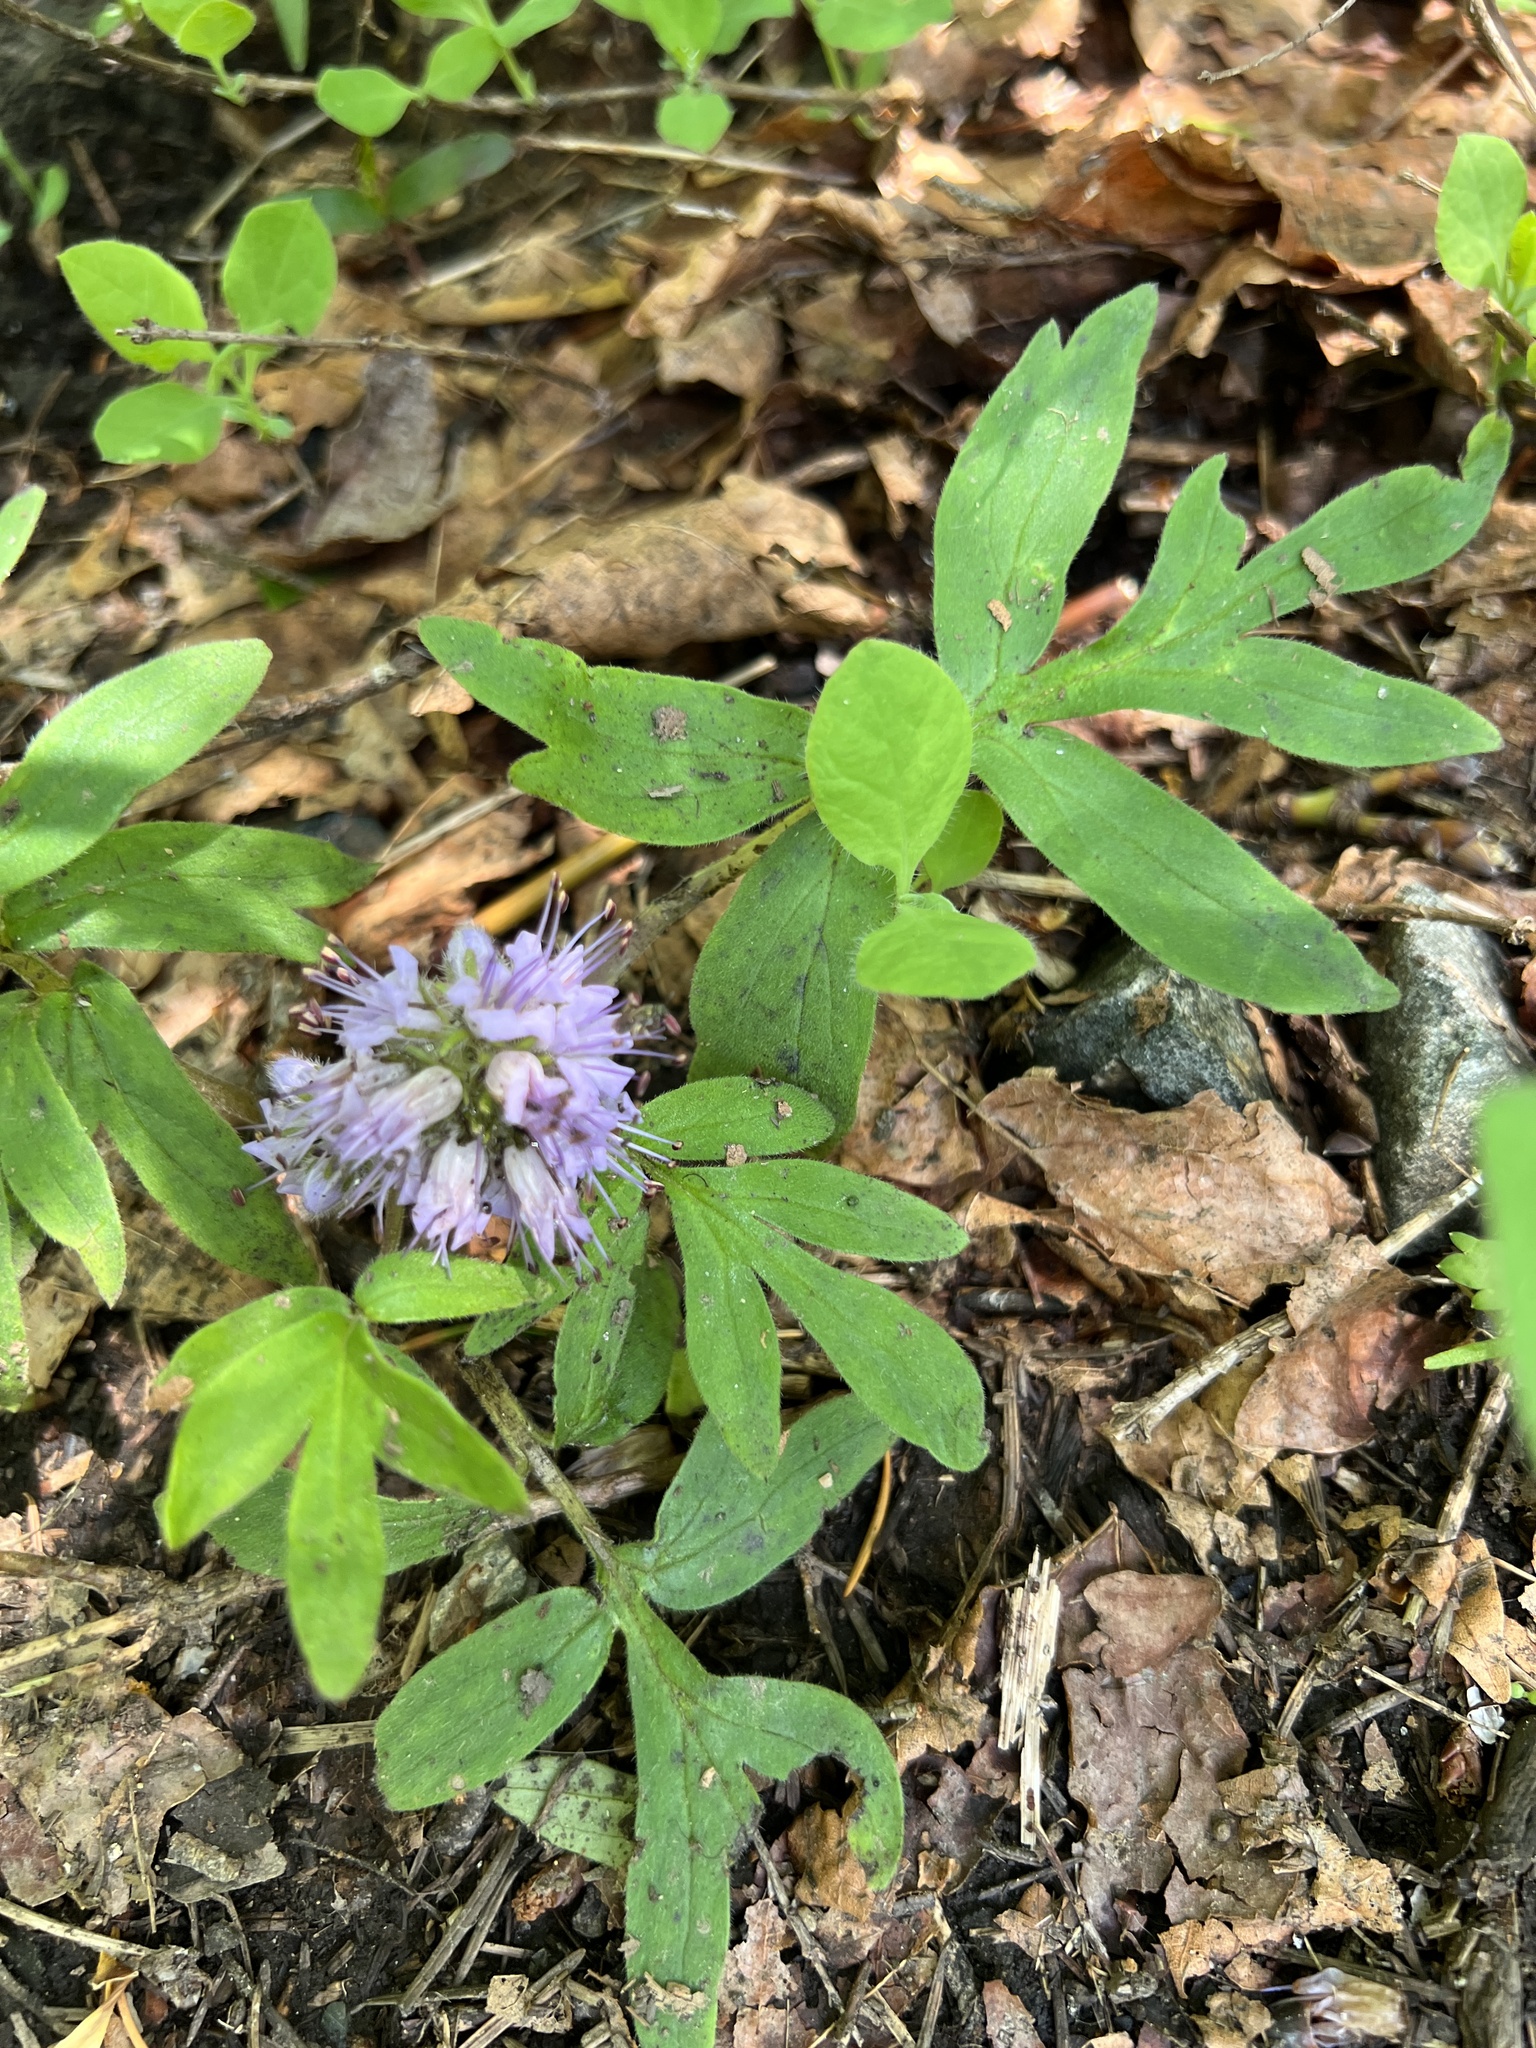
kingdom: Plantae
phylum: Tracheophyta
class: Magnoliopsida
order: Boraginales
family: Hydrophyllaceae
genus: Hydrophyllum
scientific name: Hydrophyllum capitatum
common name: Woollen-breeches
